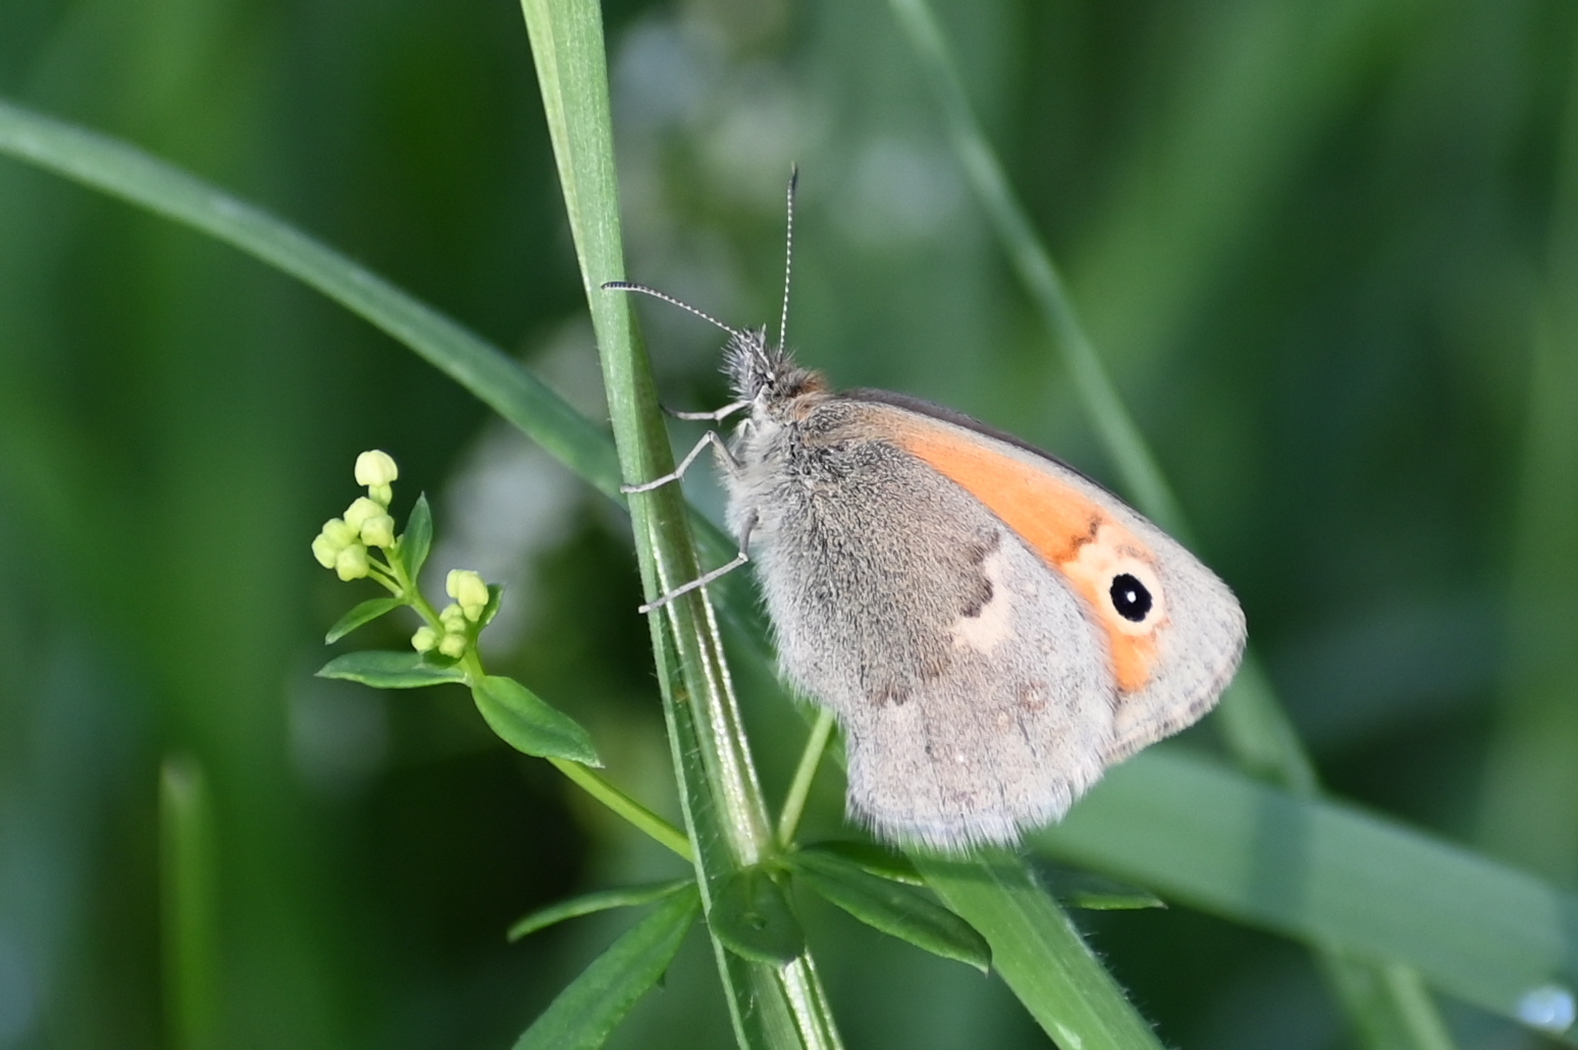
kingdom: Animalia
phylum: Arthropoda
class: Insecta
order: Lepidoptera
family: Nymphalidae
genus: Coenonympha
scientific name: Coenonympha pamphilus
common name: Small heath
